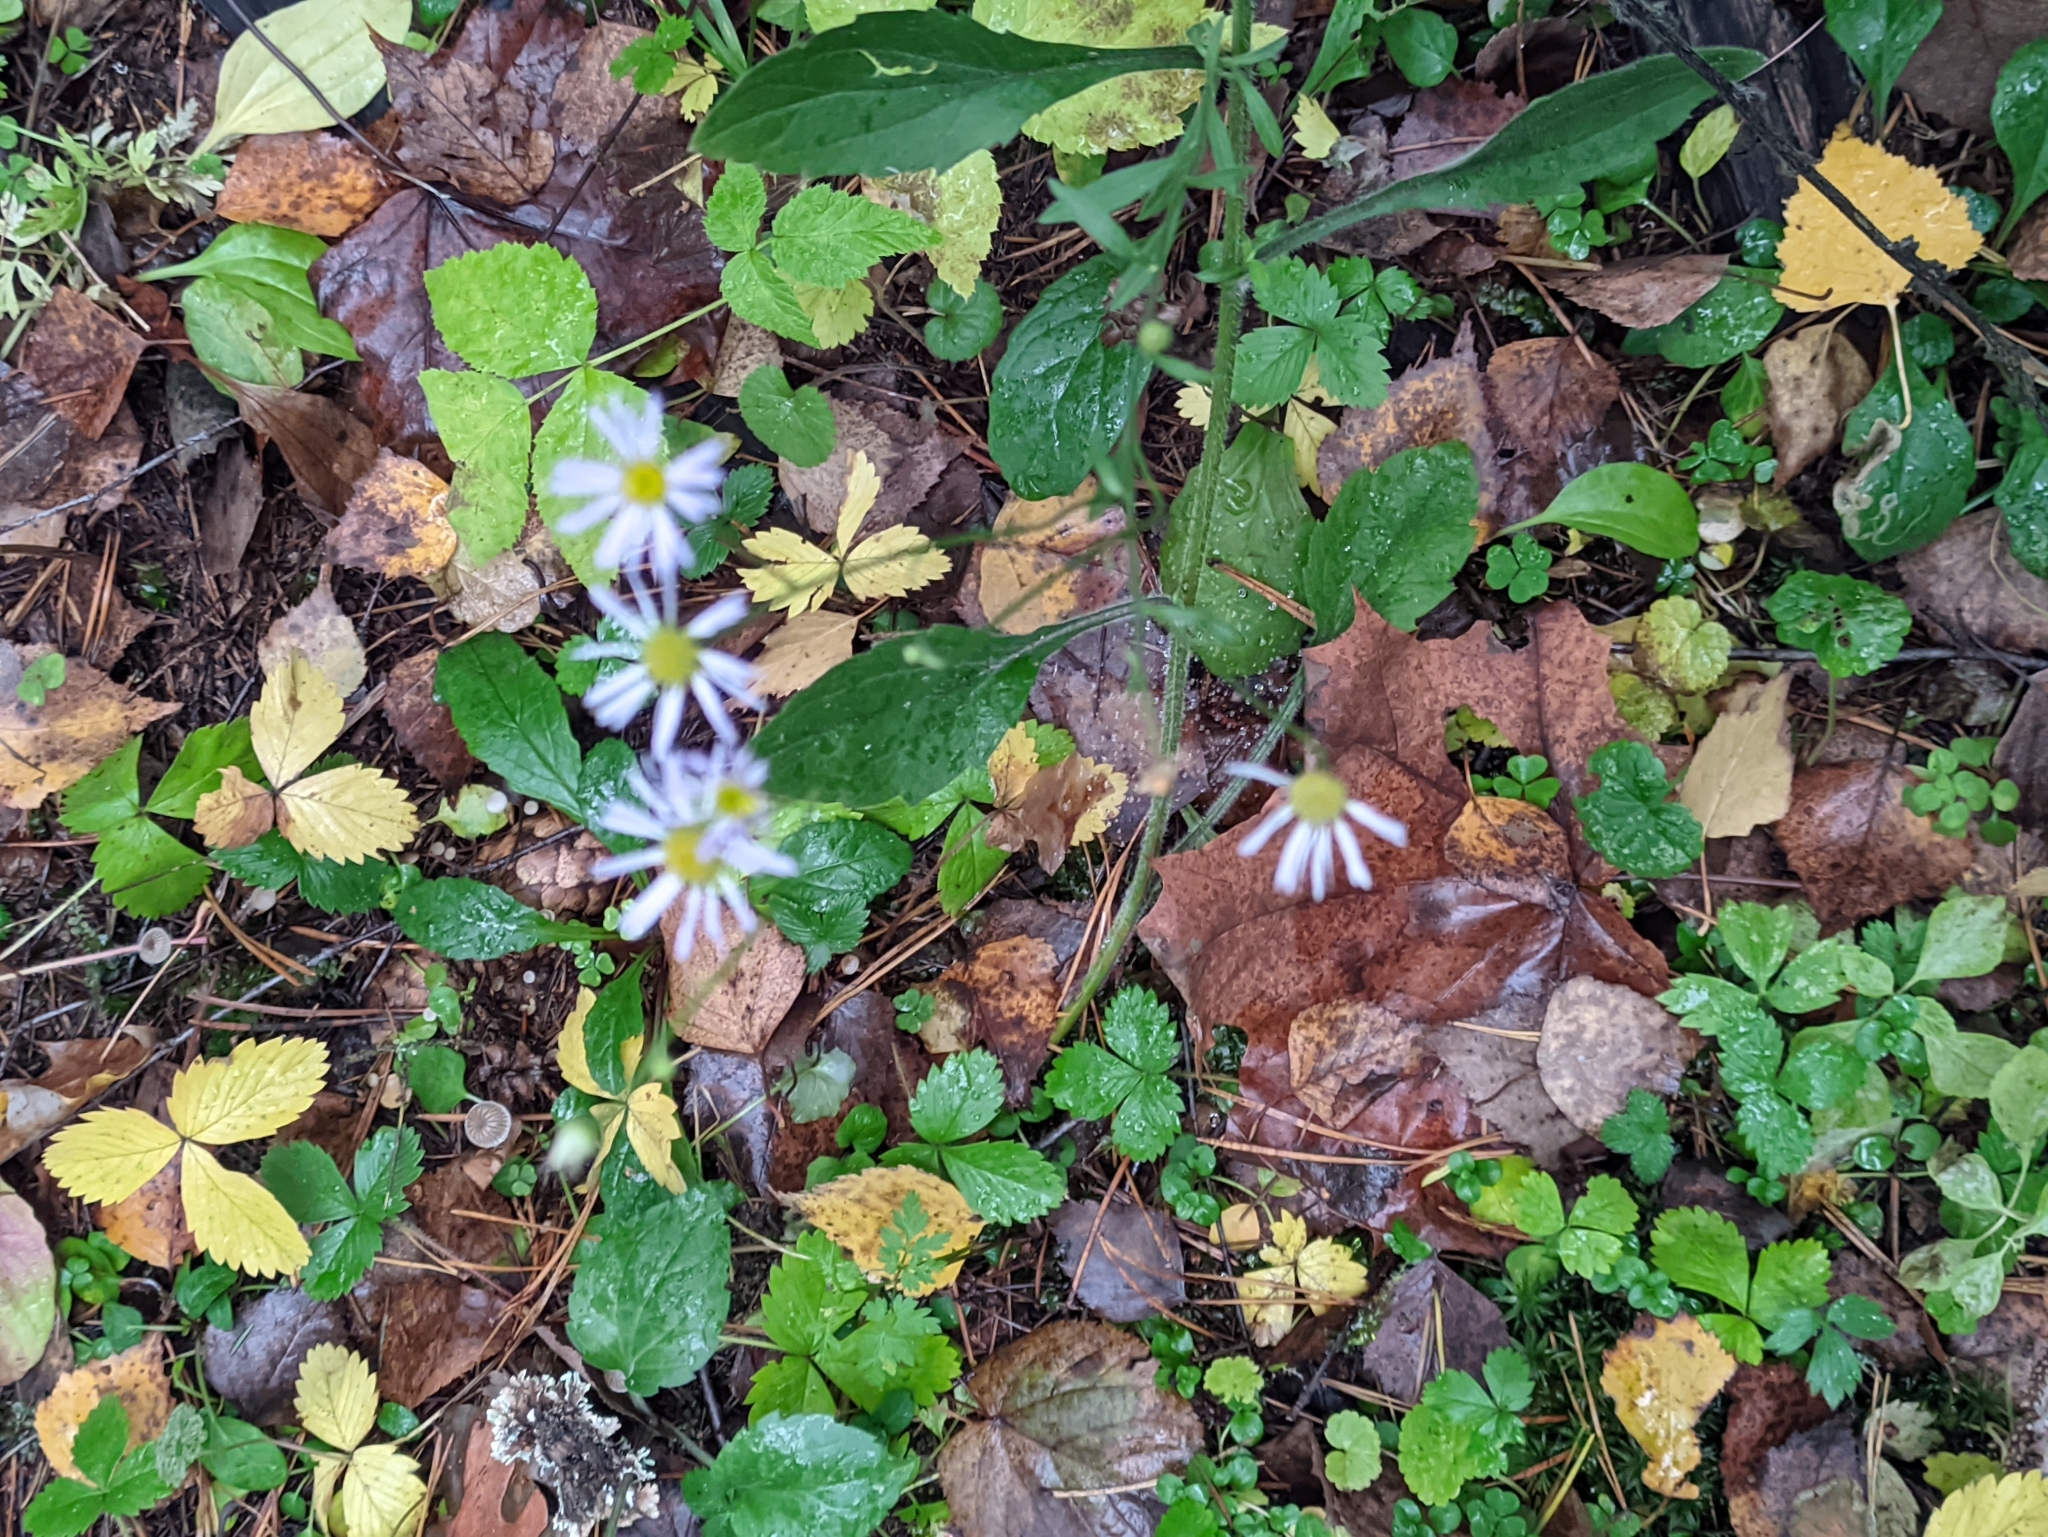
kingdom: Plantae
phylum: Tracheophyta
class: Magnoliopsida
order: Asterales
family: Asteraceae
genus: Erigeron
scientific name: Erigeron annuus
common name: Tall fleabane
